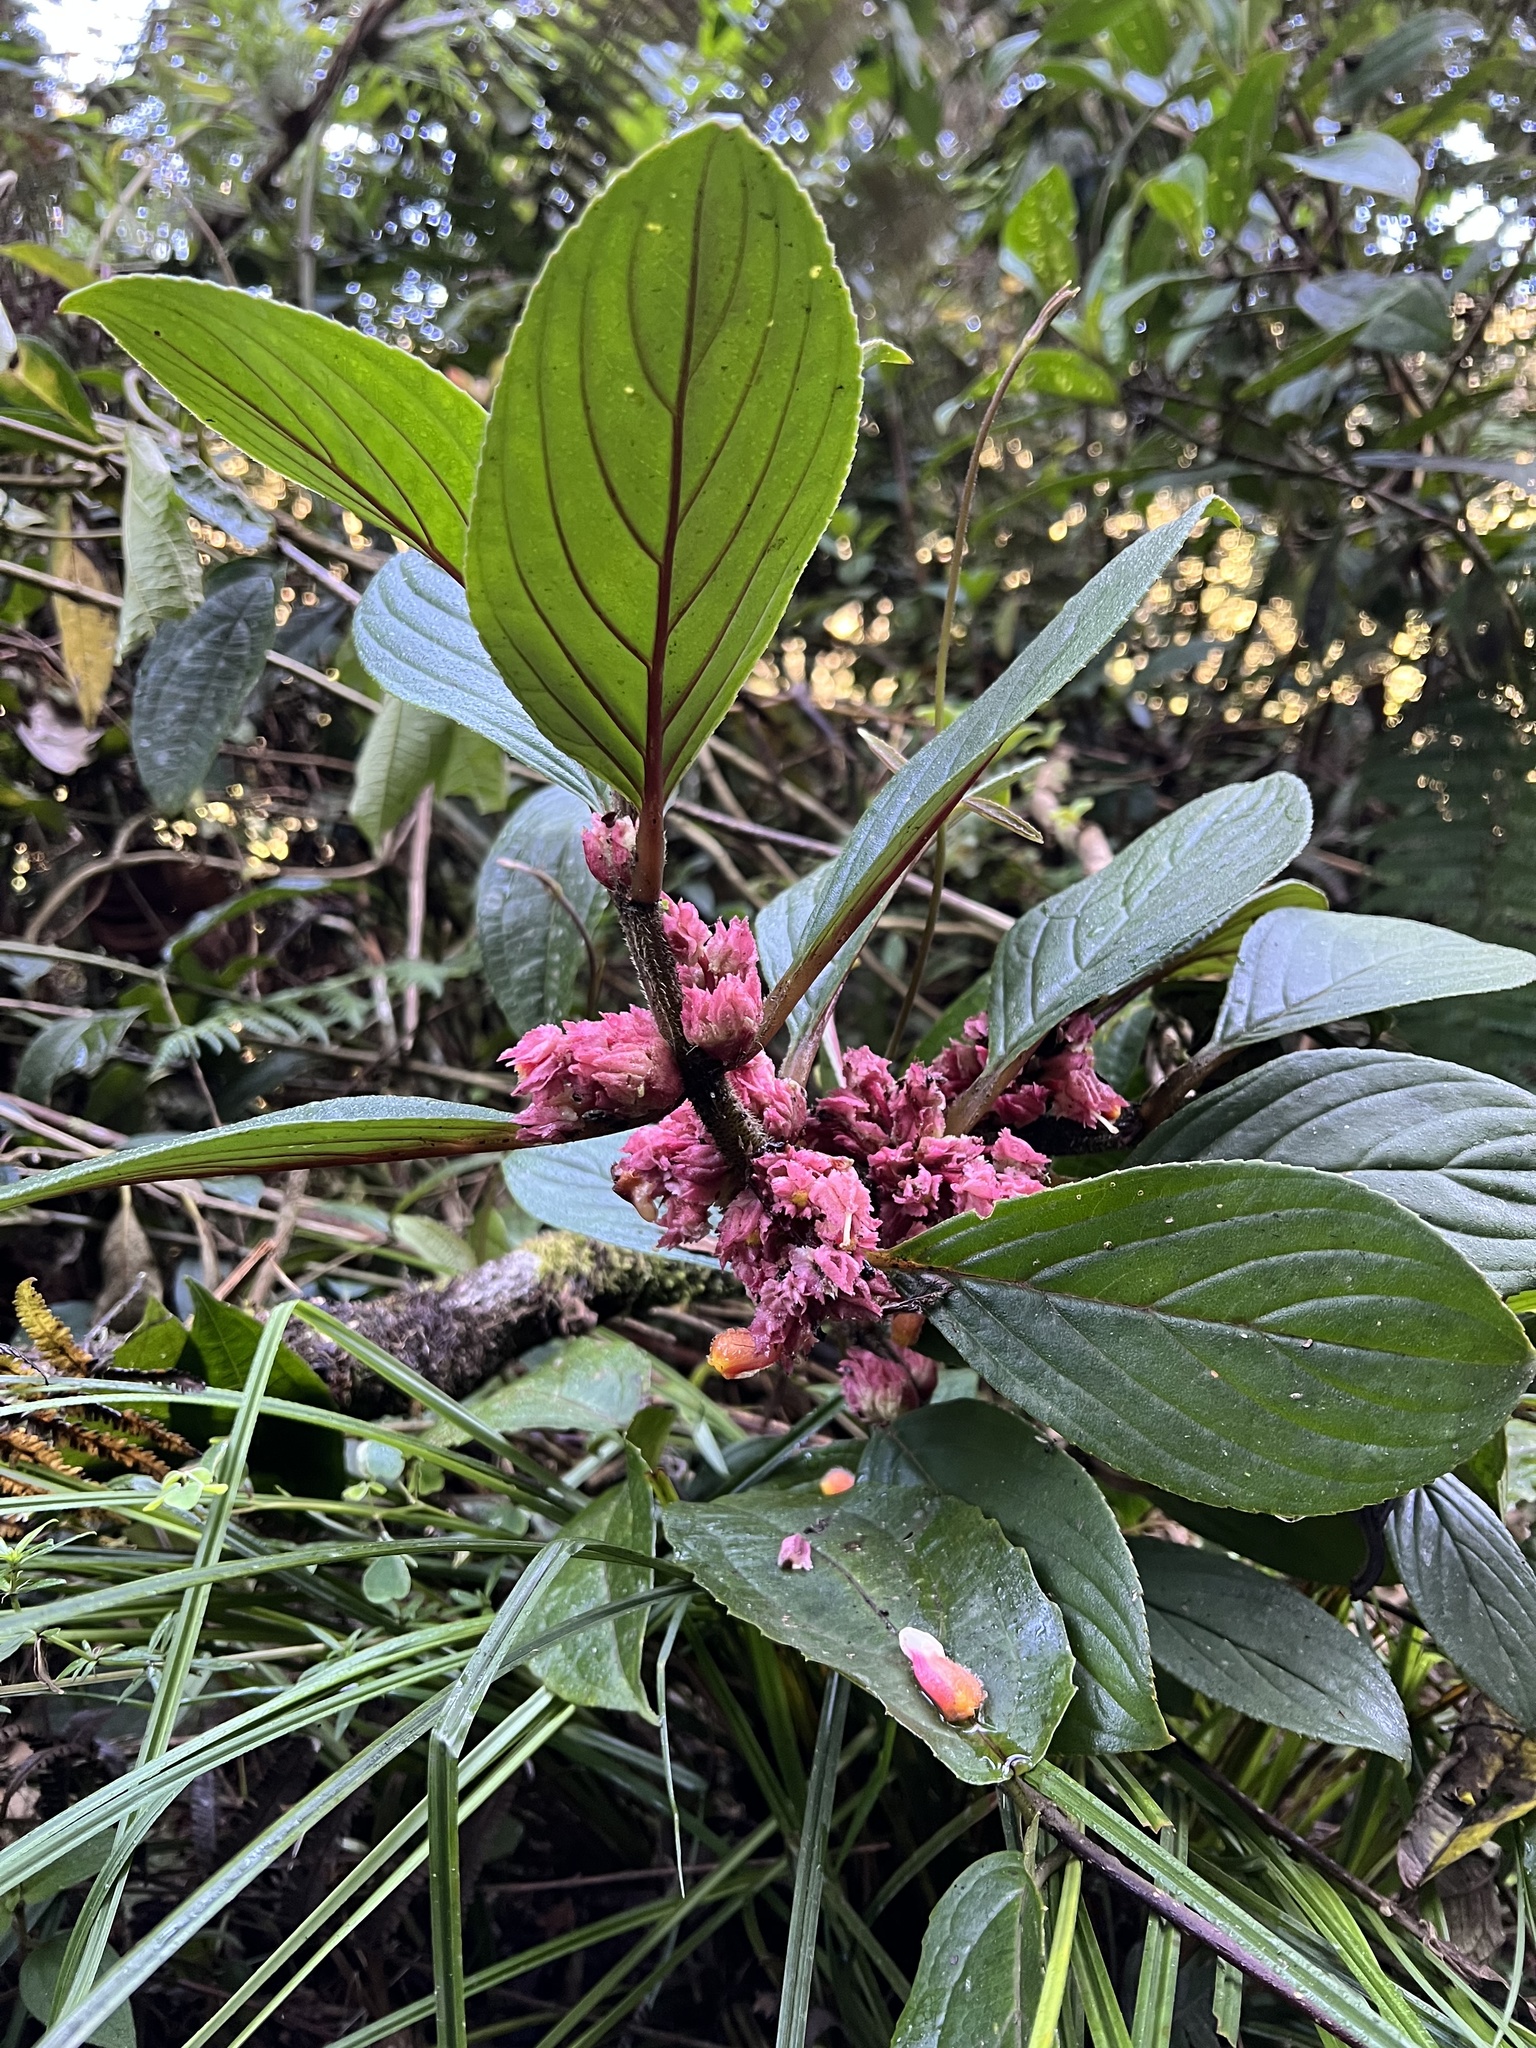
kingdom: Plantae
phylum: Tracheophyta
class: Magnoliopsida
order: Lamiales
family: Gesneriaceae
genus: Glossoloma
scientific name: Glossoloma ichthyoderma
